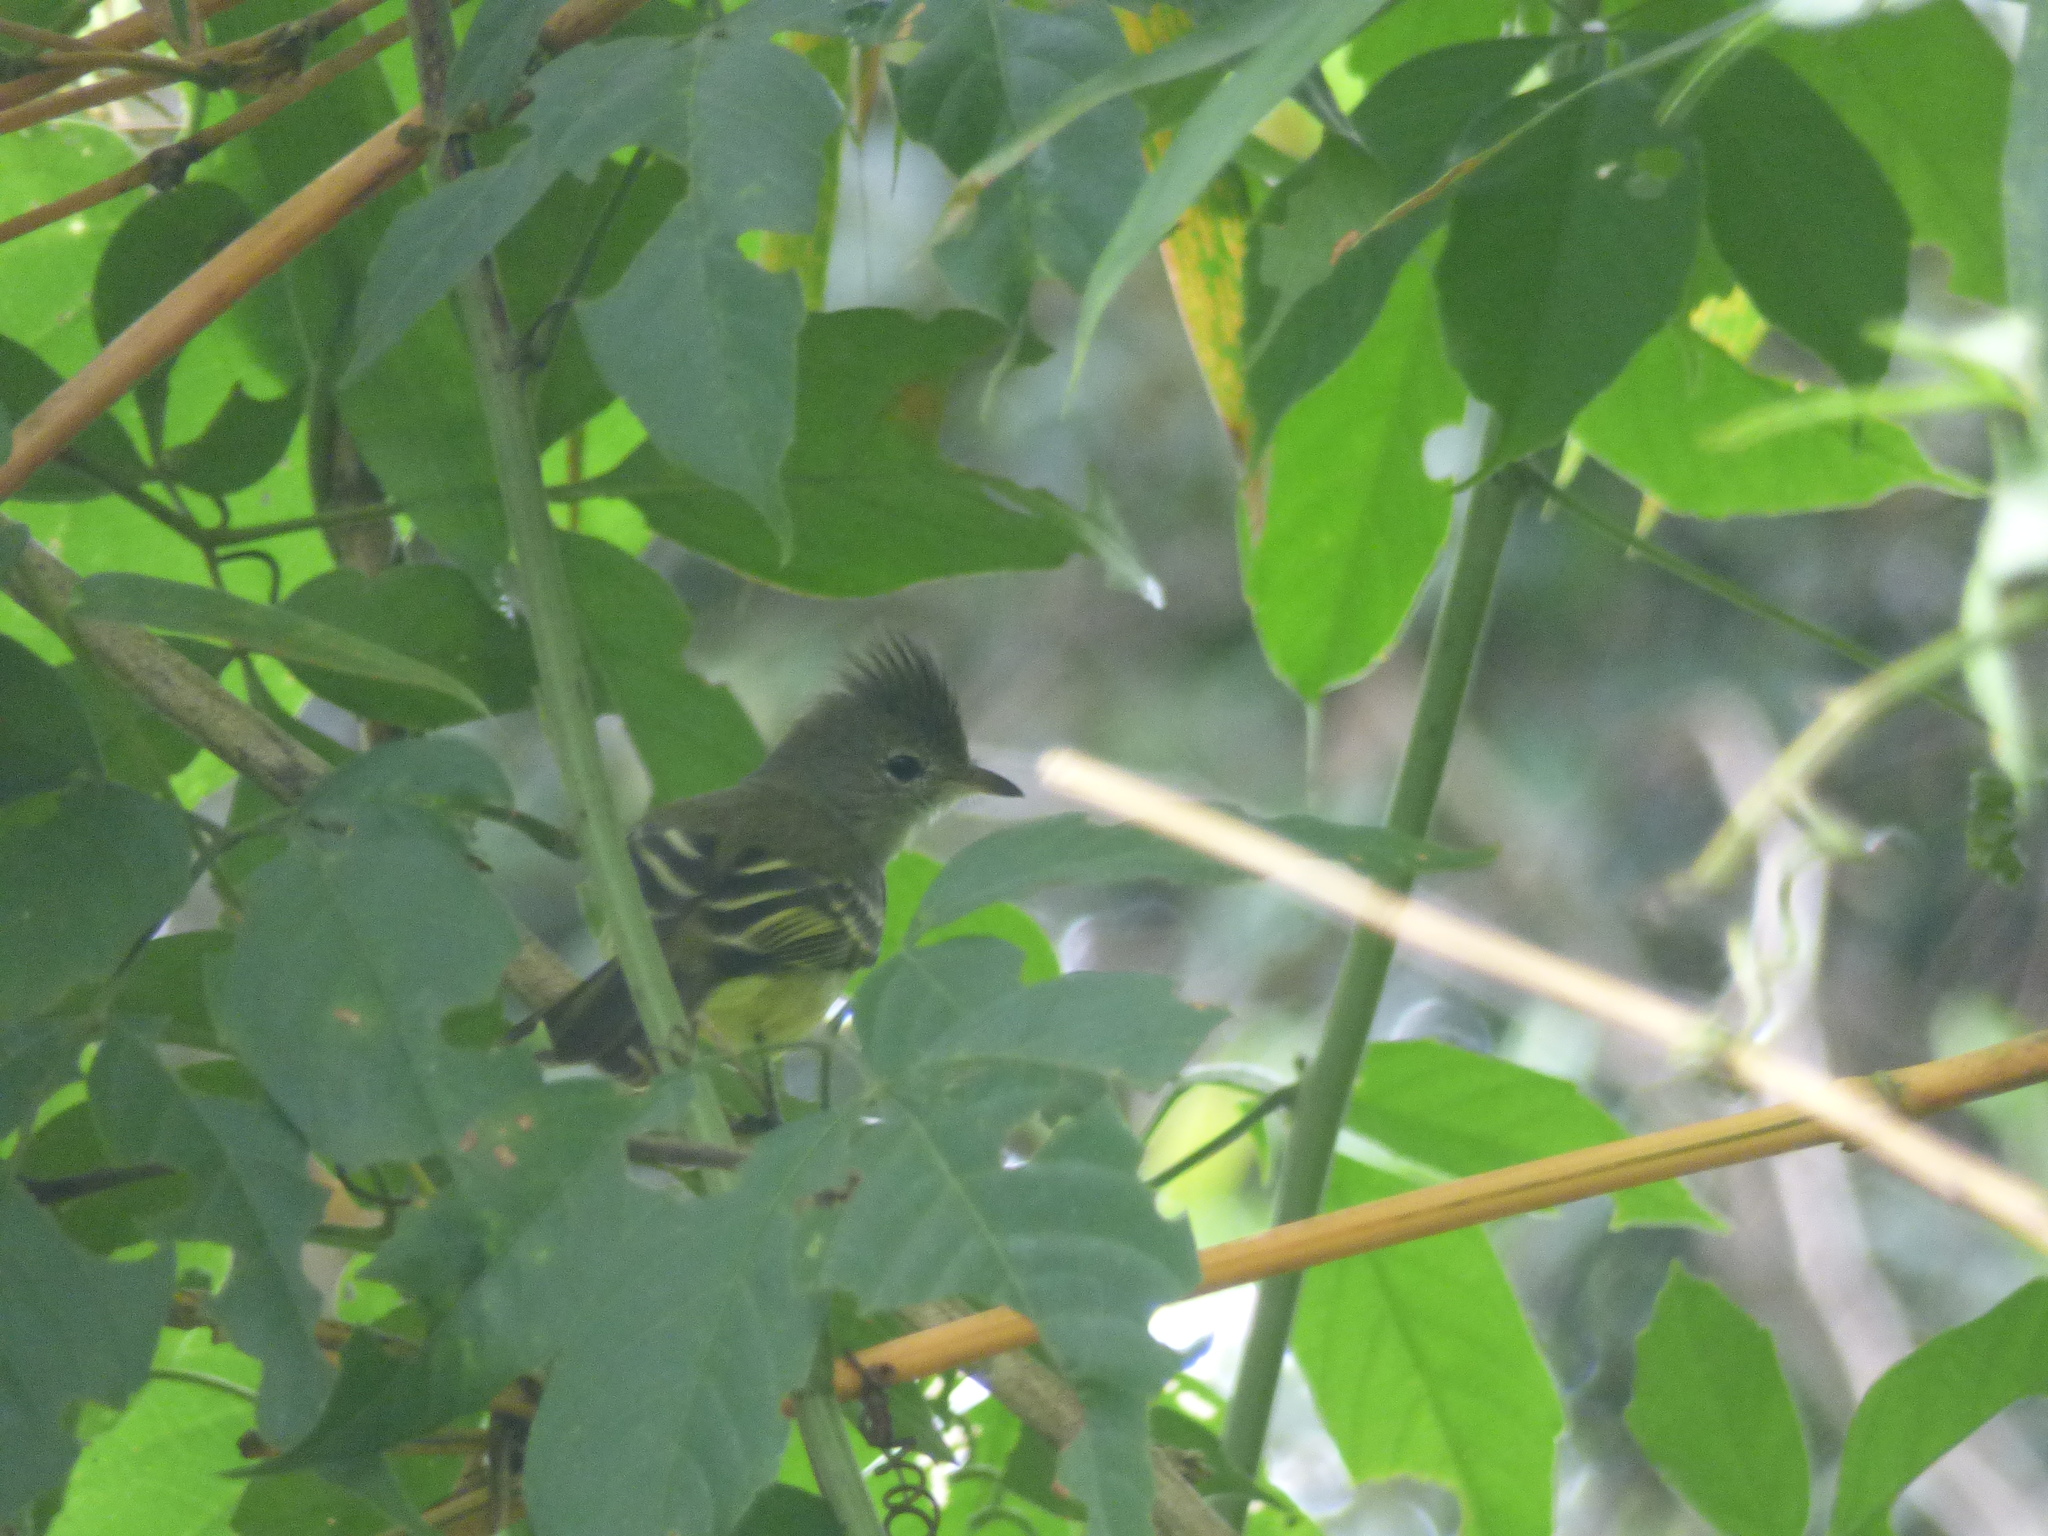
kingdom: Animalia
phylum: Chordata
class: Aves
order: Passeriformes
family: Tyrannidae
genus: Elaenia
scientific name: Elaenia flavogaster
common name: Yellow-bellied elaenia
